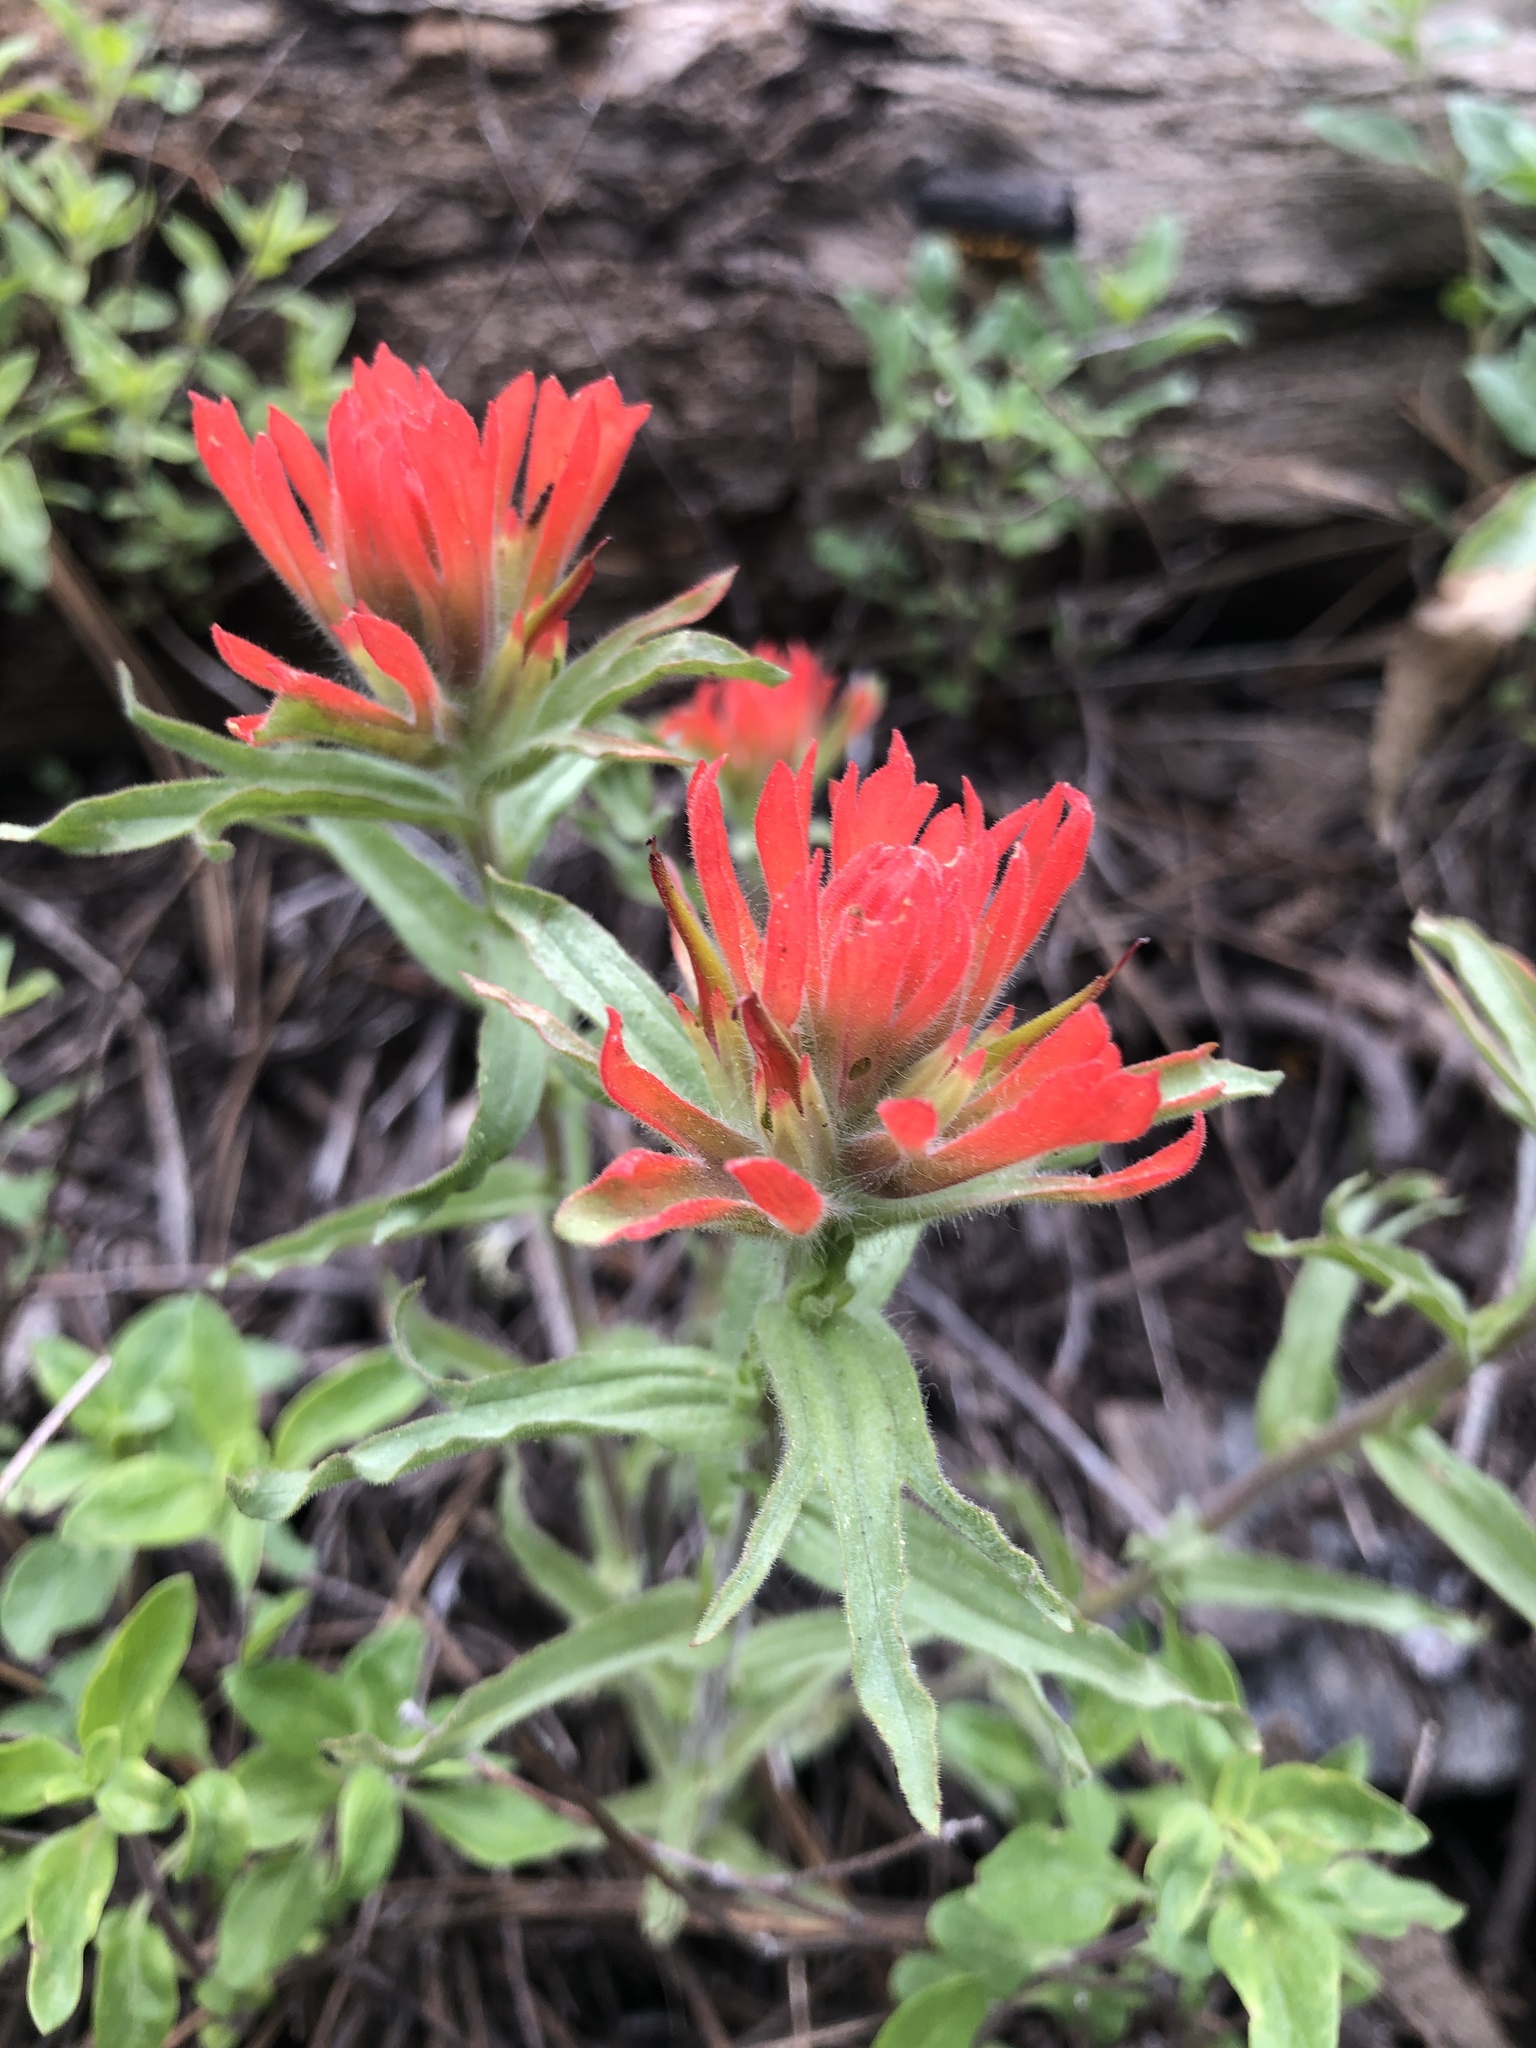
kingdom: Plantae
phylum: Tracheophyta
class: Magnoliopsida
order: Lamiales
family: Orobanchaceae
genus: Castilleja
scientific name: Castilleja applegatei
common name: Wavy-leaf paintbrush
